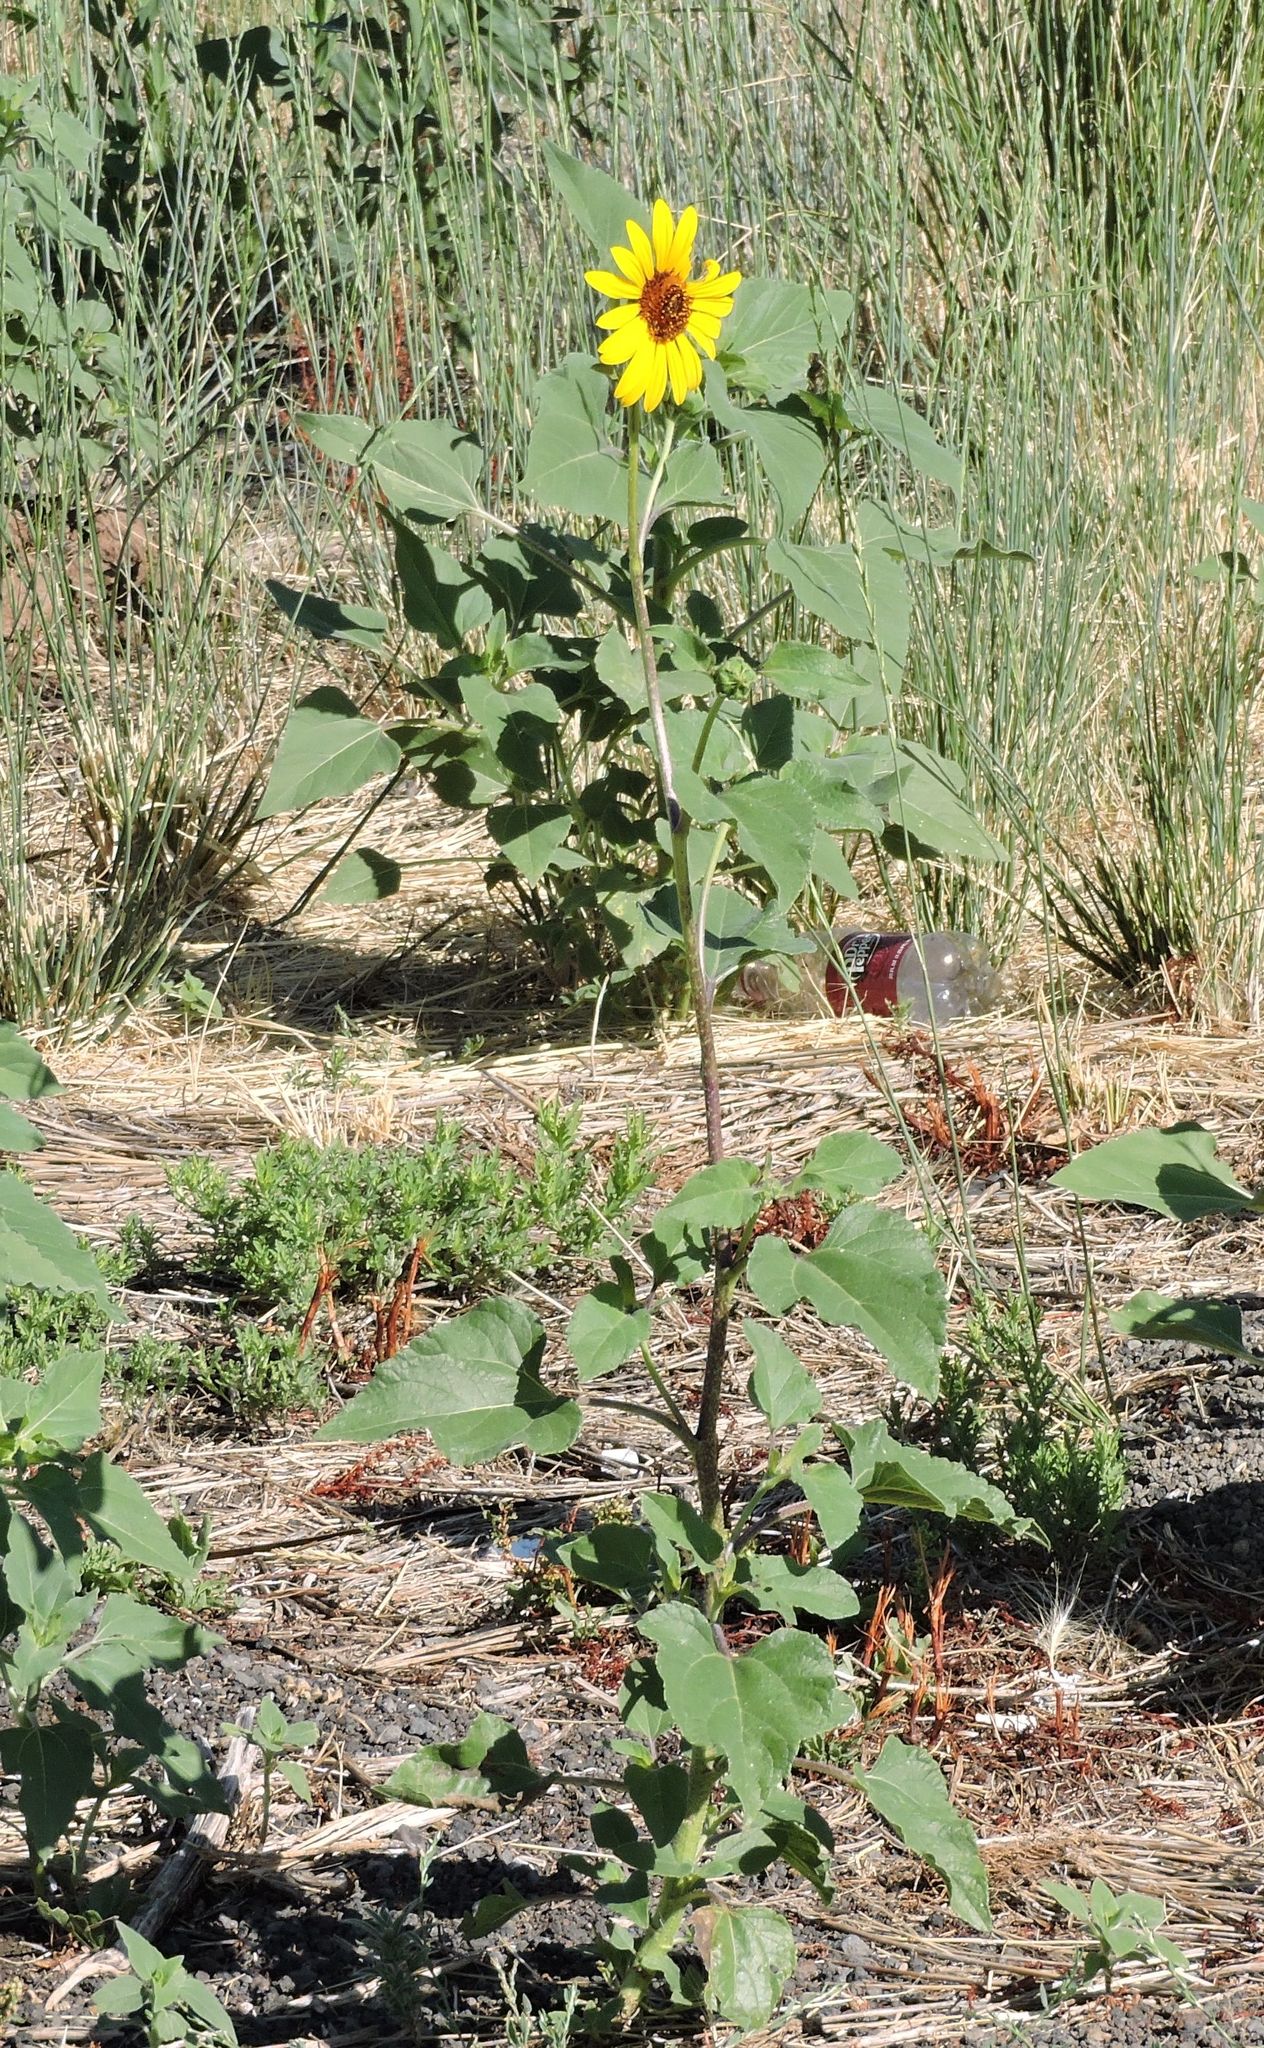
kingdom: Plantae
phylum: Tracheophyta
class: Magnoliopsida
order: Asterales
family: Asteraceae
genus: Helianthus
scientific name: Helianthus annuus
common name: Sunflower
